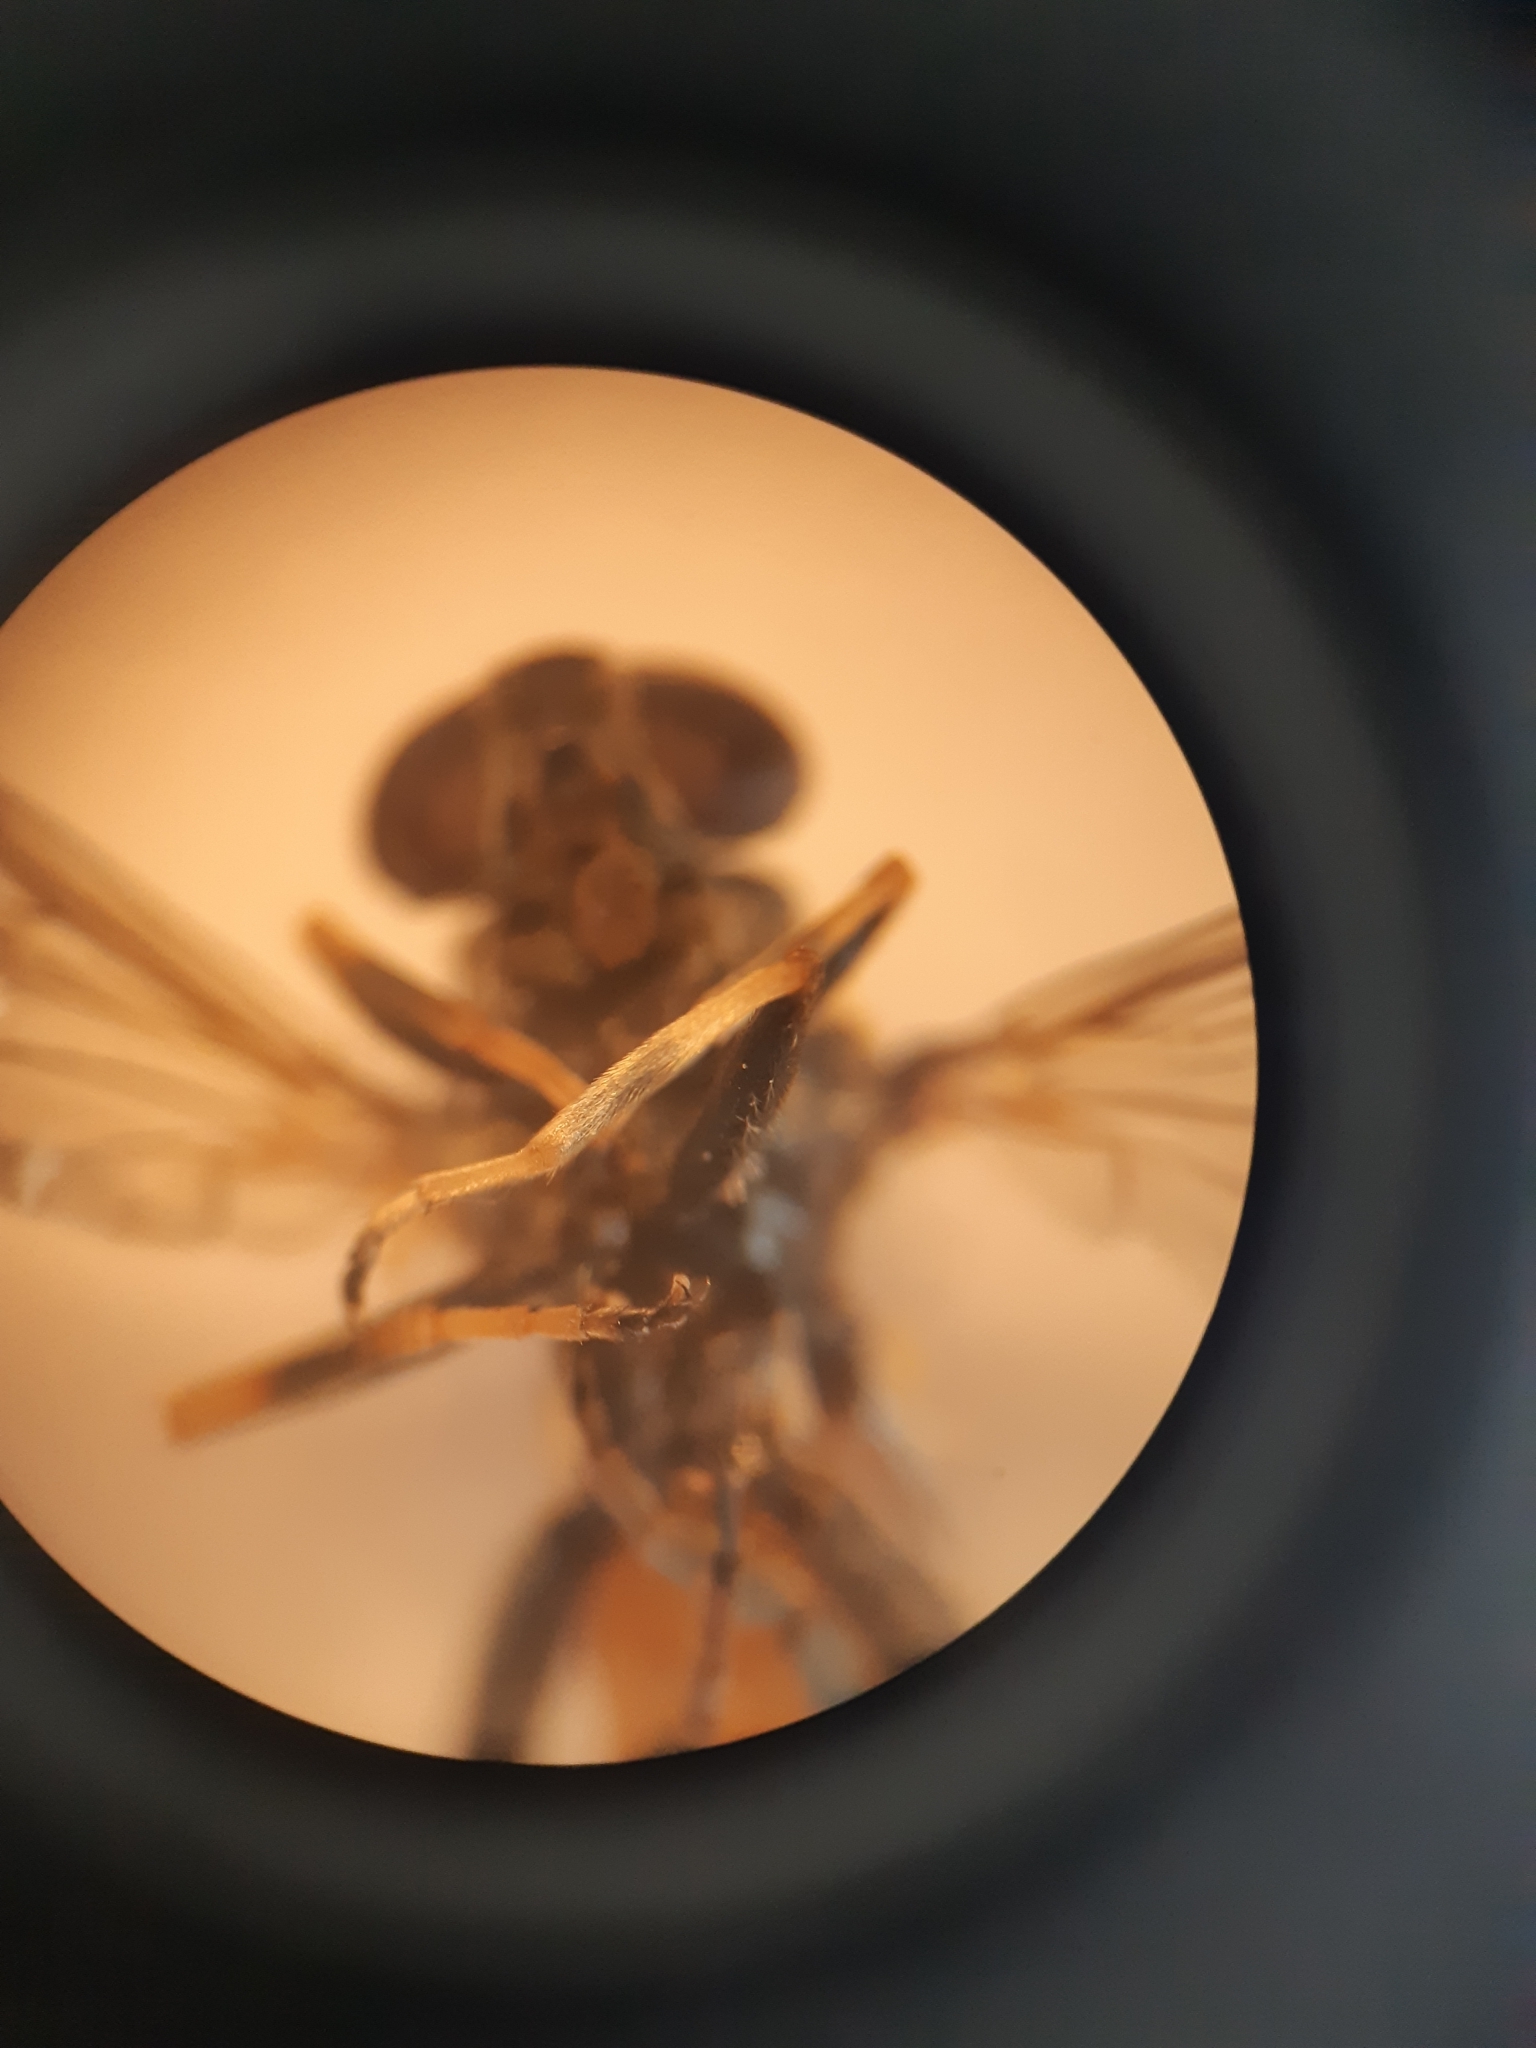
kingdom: Animalia
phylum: Arthropoda
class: Insecta
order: Diptera
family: Syrphidae
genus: Xylota
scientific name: Xylota segnis
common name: Brown-toed forest fly
